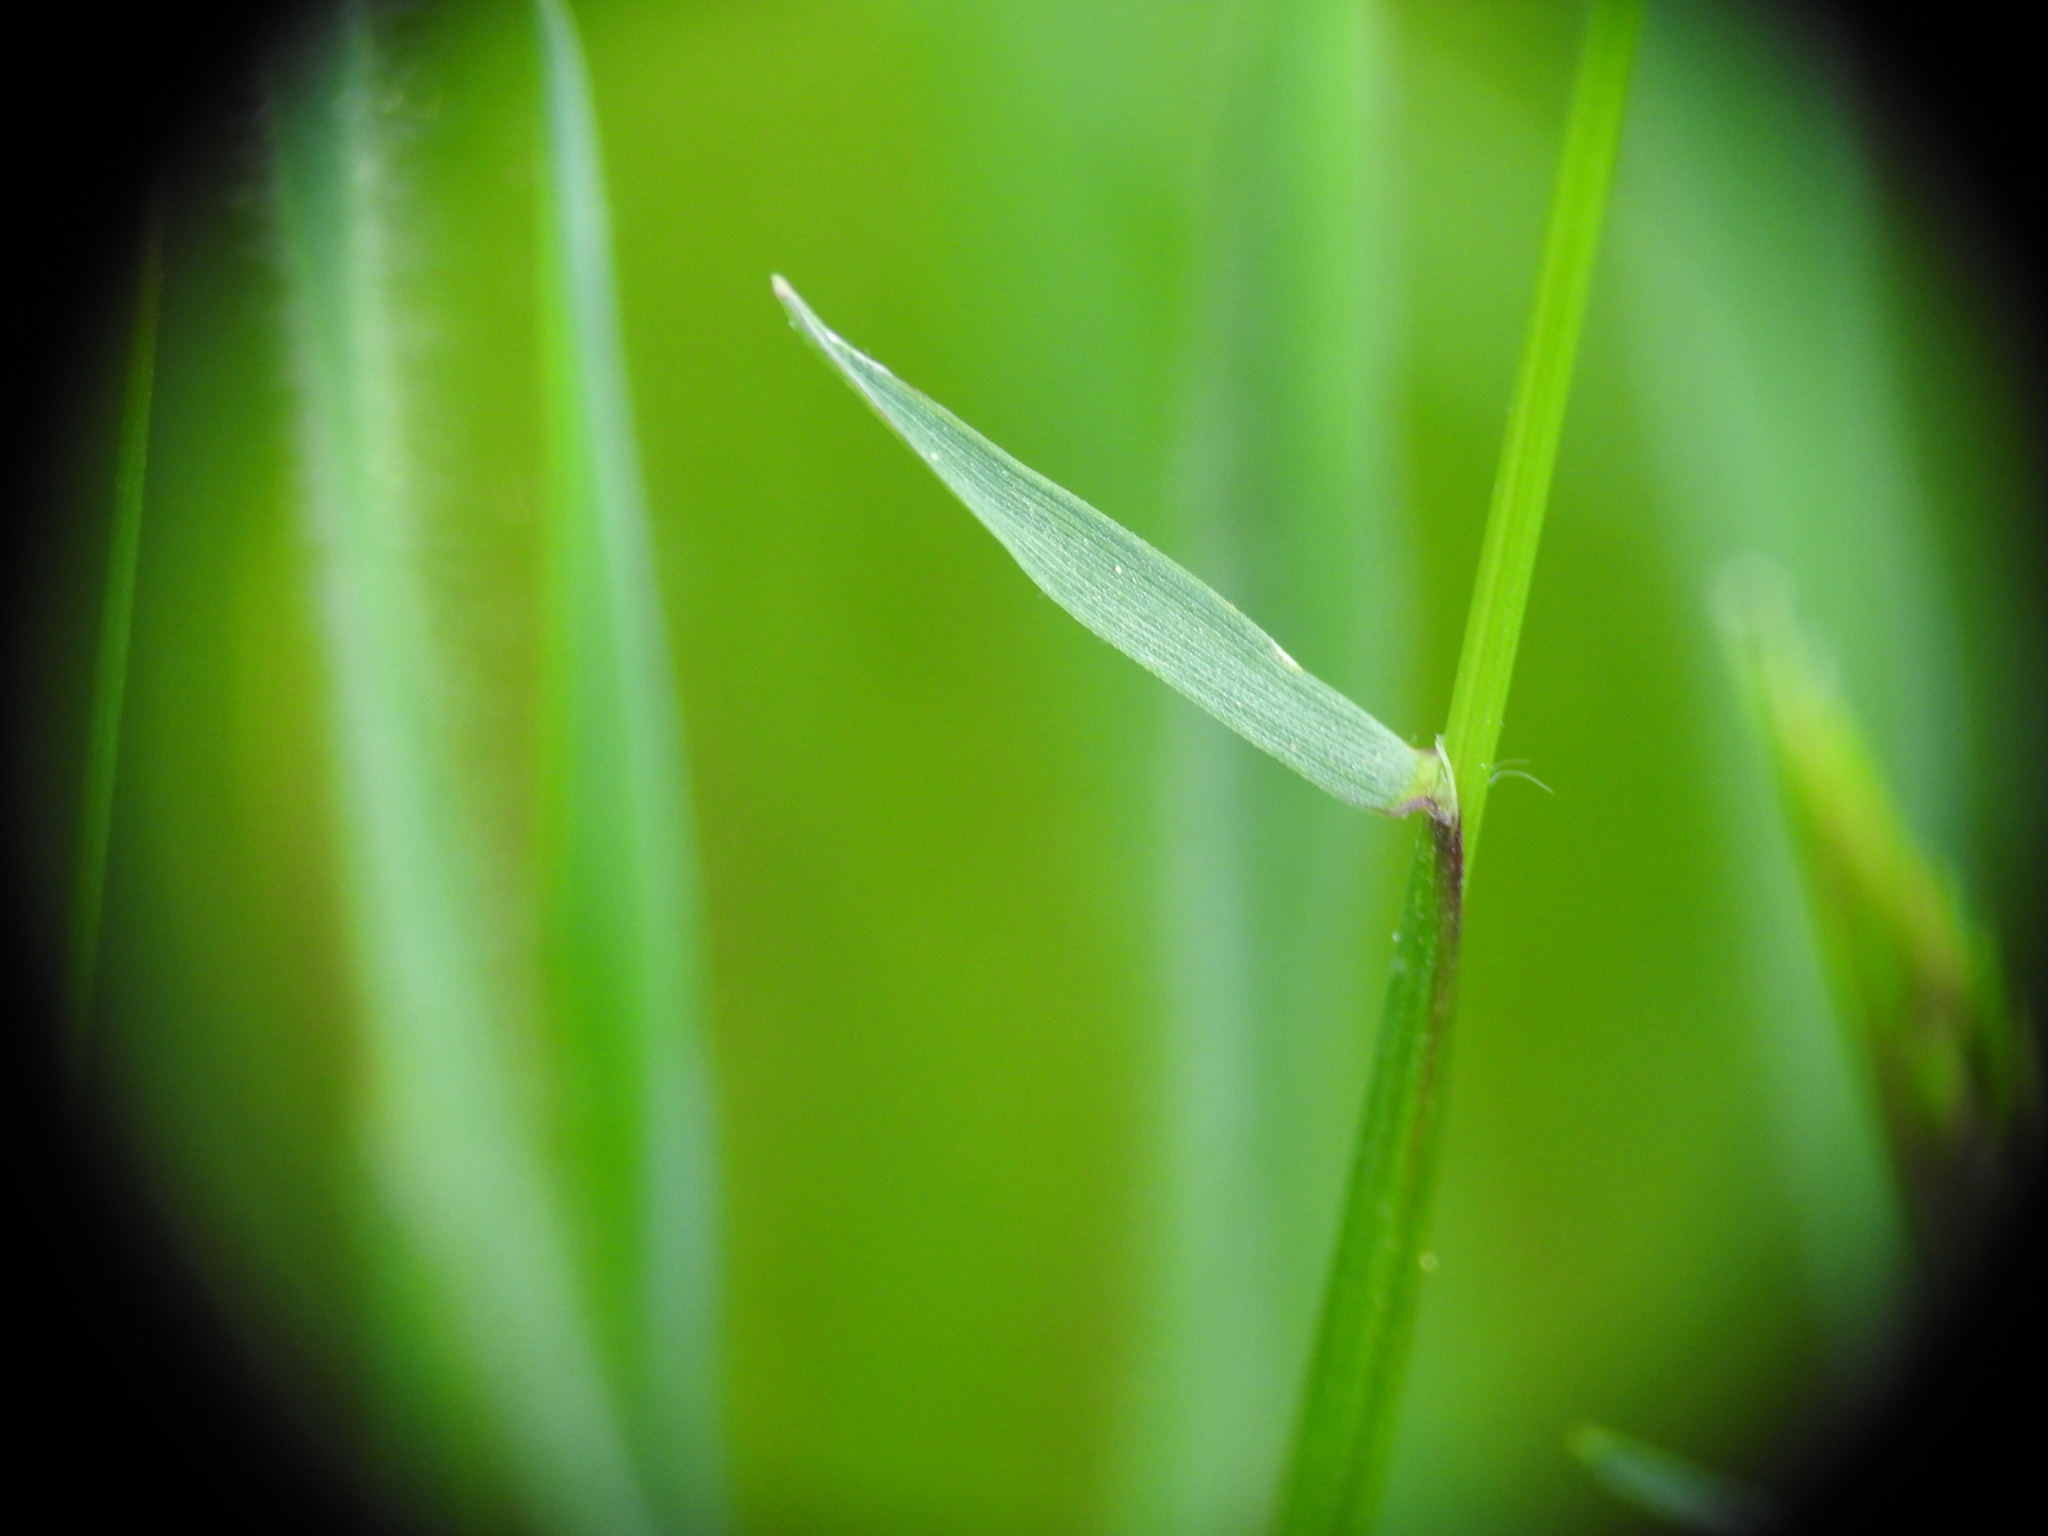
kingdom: Plantae
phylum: Tracheophyta
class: Liliopsida
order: Poales
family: Poaceae
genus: Anthoxanthum
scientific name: Anthoxanthum odoratum
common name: Sweet vernalgrass
